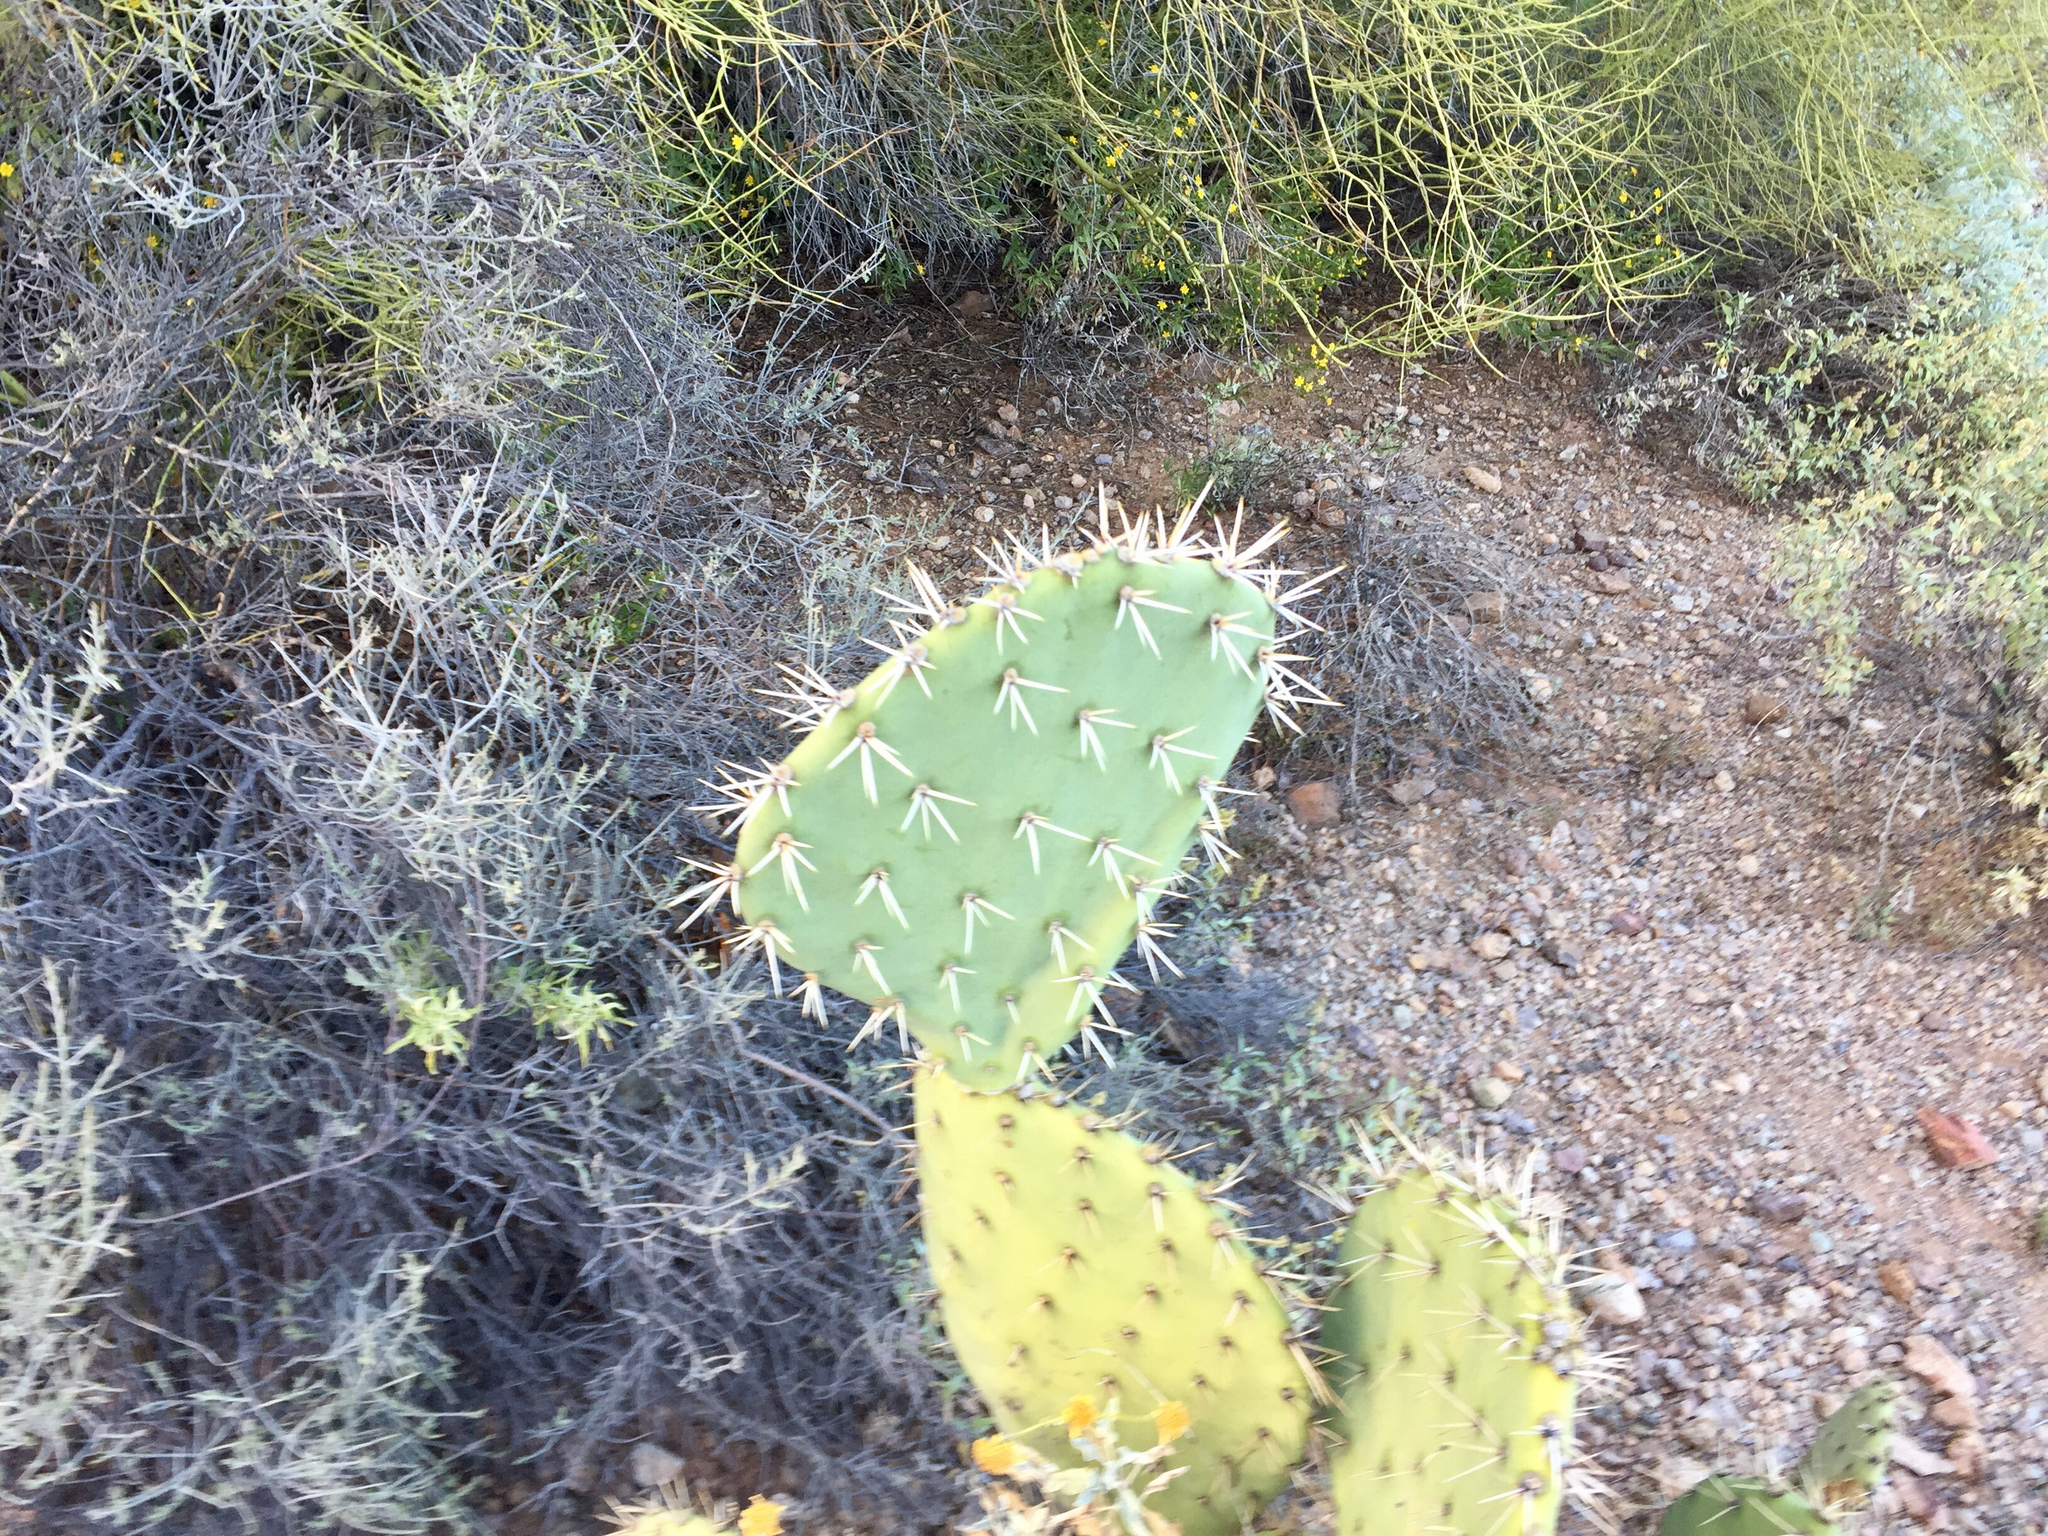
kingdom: Plantae
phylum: Tracheophyta
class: Magnoliopsida
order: Caryophyllales
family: Cactaceae
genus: Opuntia
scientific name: Opuntia engelmannii
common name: Cactus-apple
